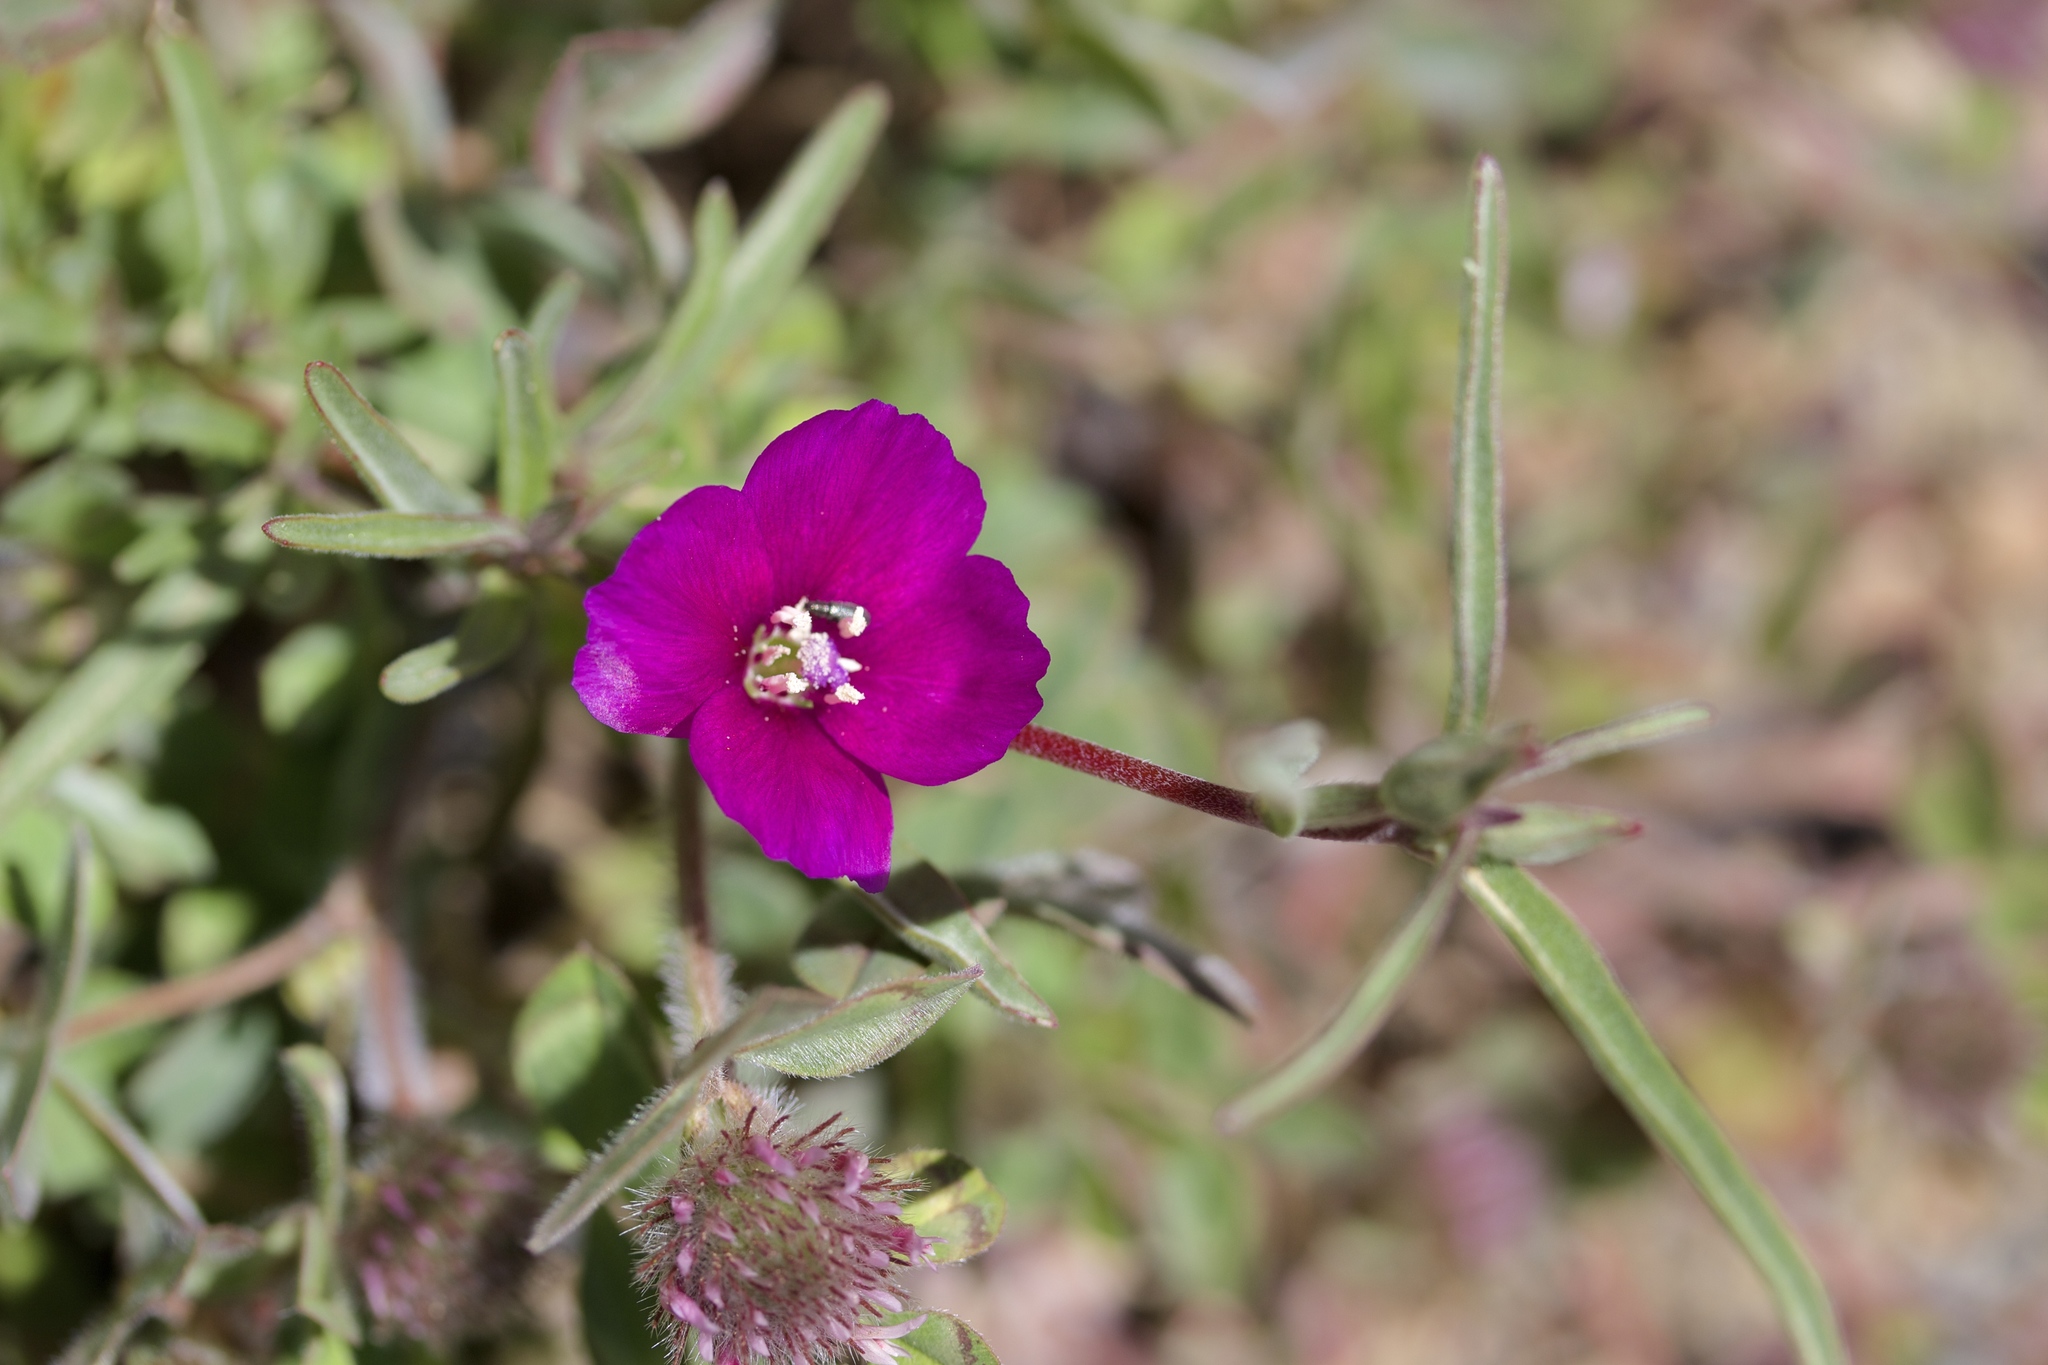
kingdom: Plantae
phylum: Tracheophyta
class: Magnoliopsida
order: Myrtales
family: Onagraceae
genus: Clarkia
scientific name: Clarkia purpurea
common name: Purple clarkia
